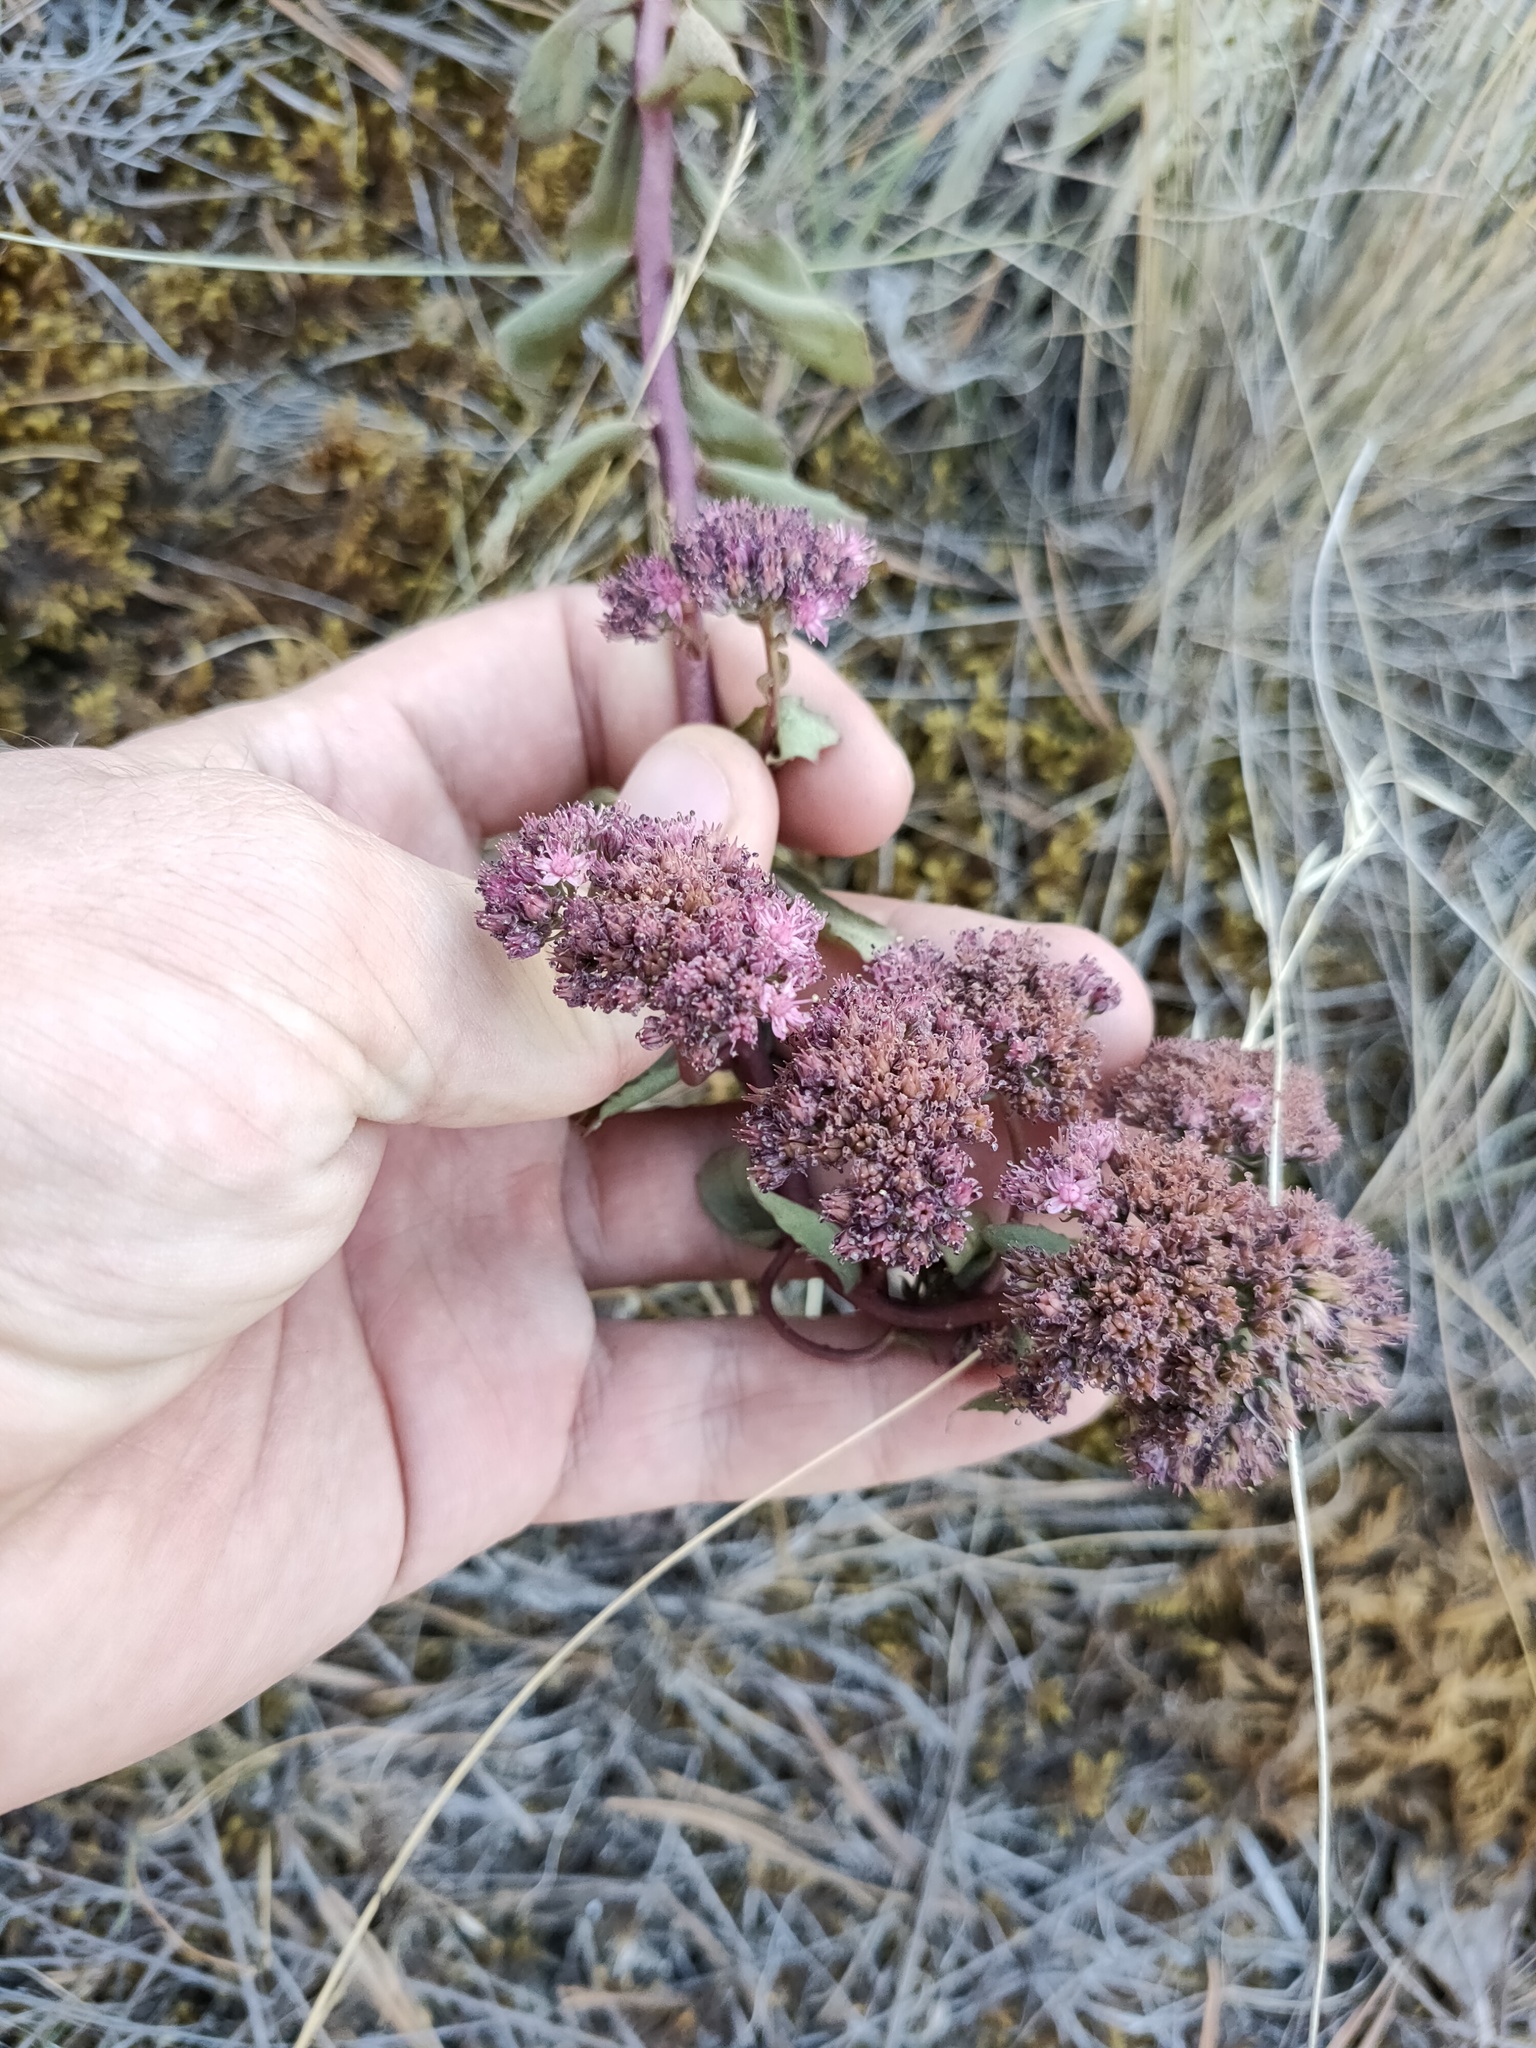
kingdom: Plantae
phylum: Tracheophyta
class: Magnoliopsida
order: Saxifragales
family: Crassulaceae
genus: Hylotelephium
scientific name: Hylotelephium telephium
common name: Live-forever
